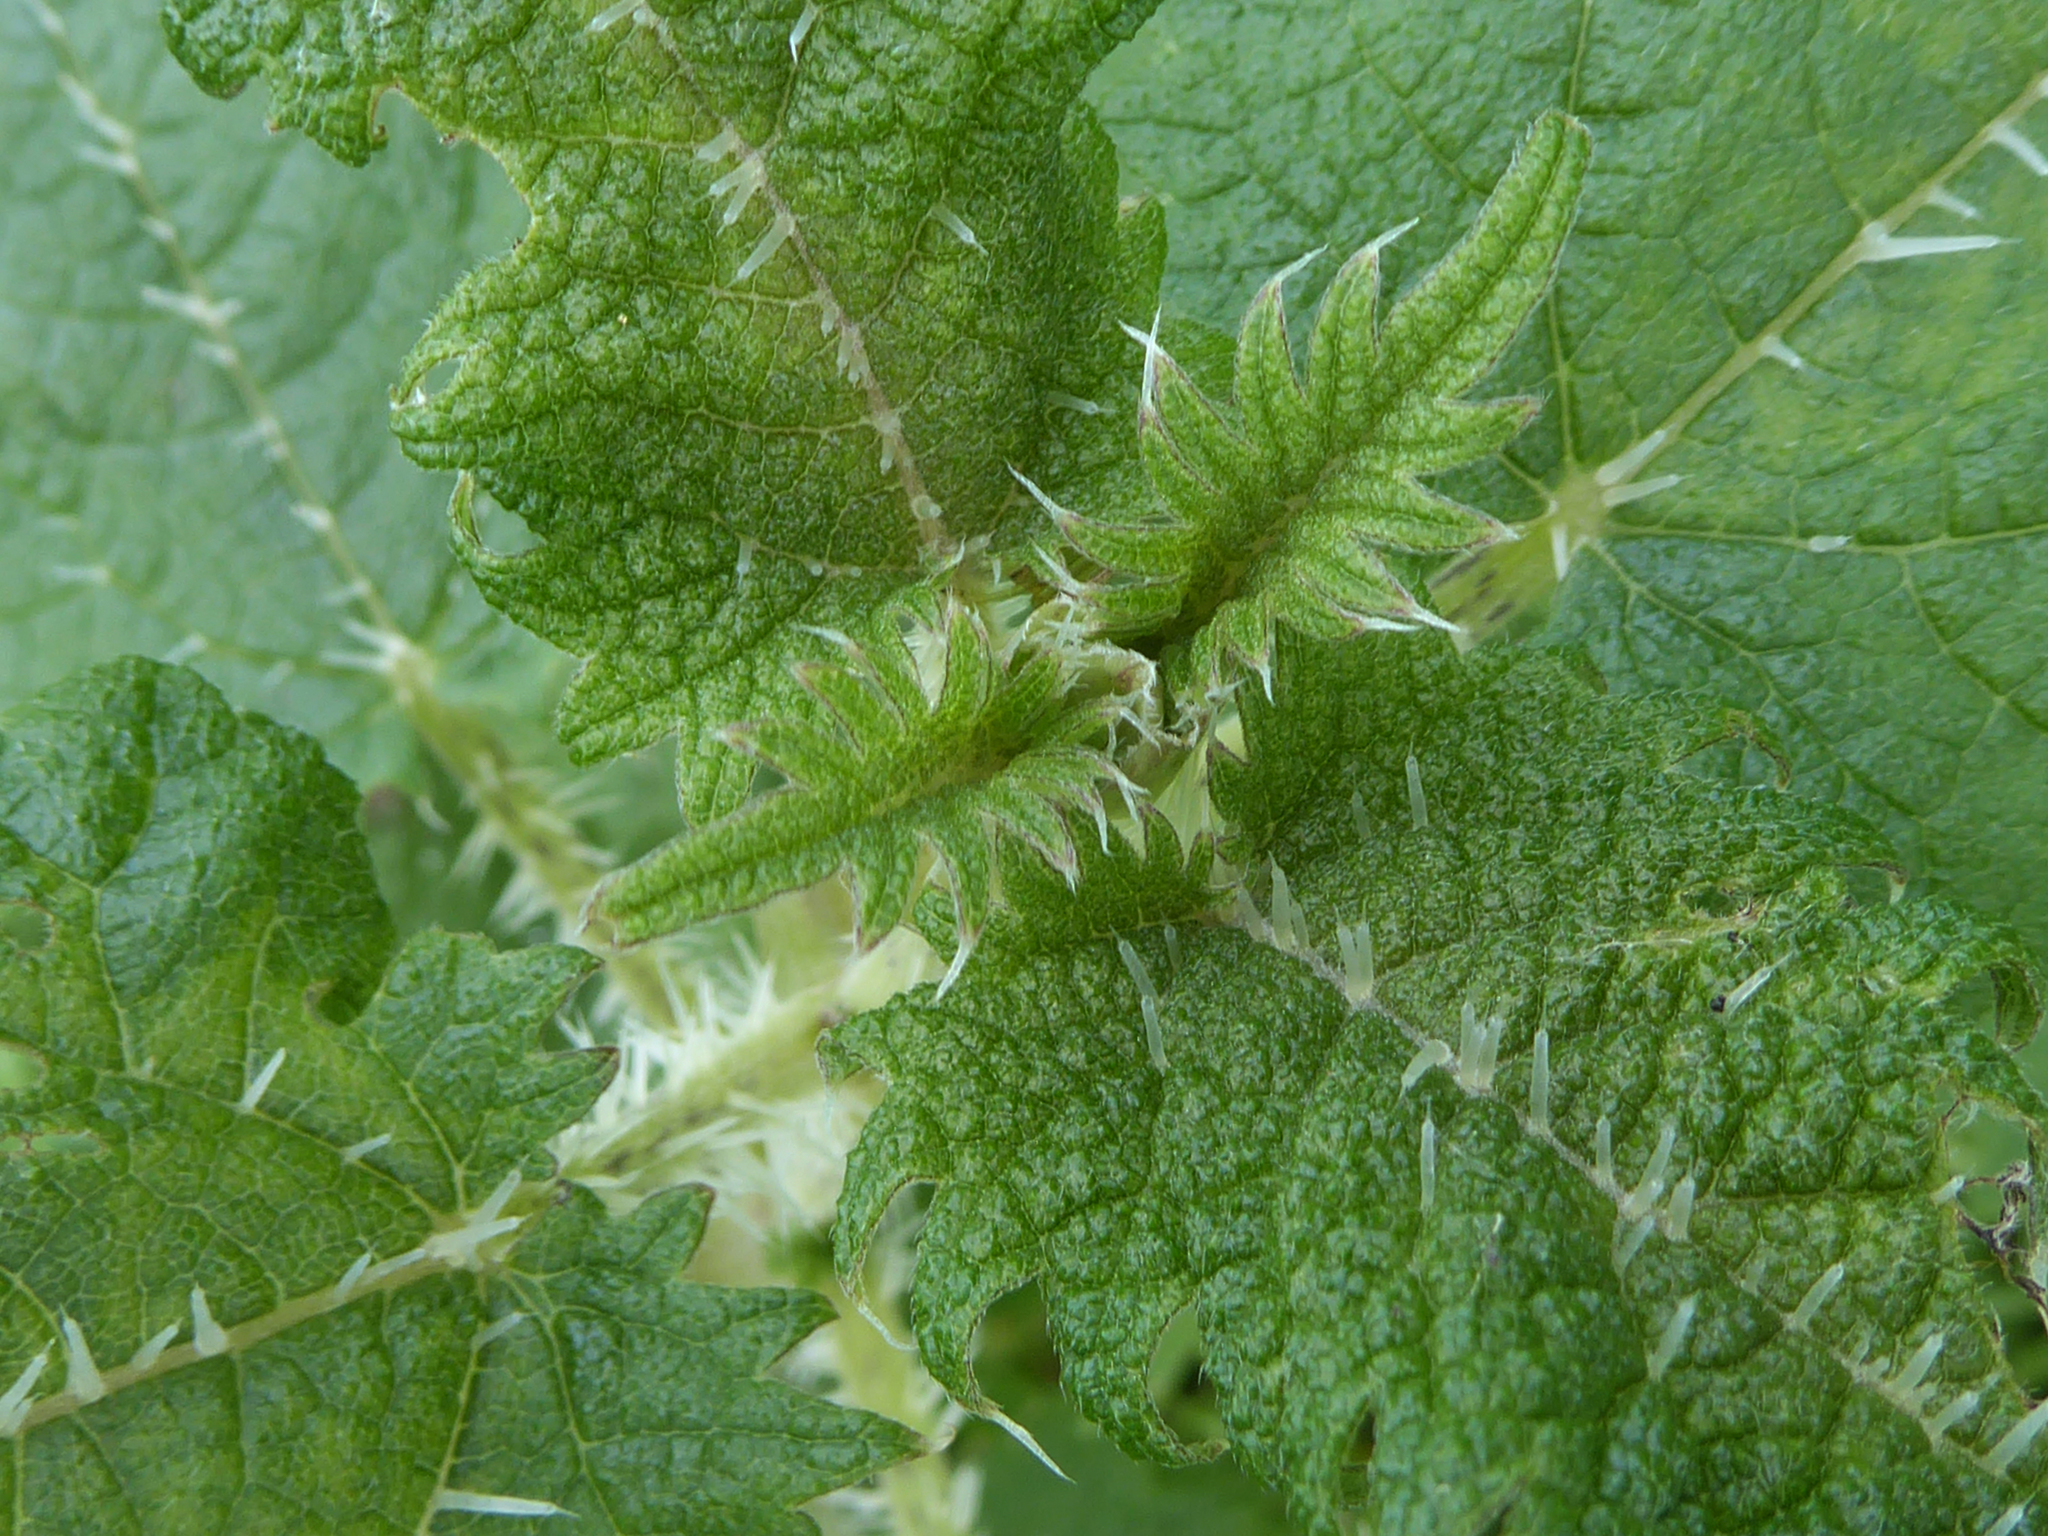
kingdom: Plantae
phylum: Tracheophyta
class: Magnoliopsida
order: Rosales
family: Urticaceae
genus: Urtica
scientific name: Urtica ferox
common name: Tree nettle
